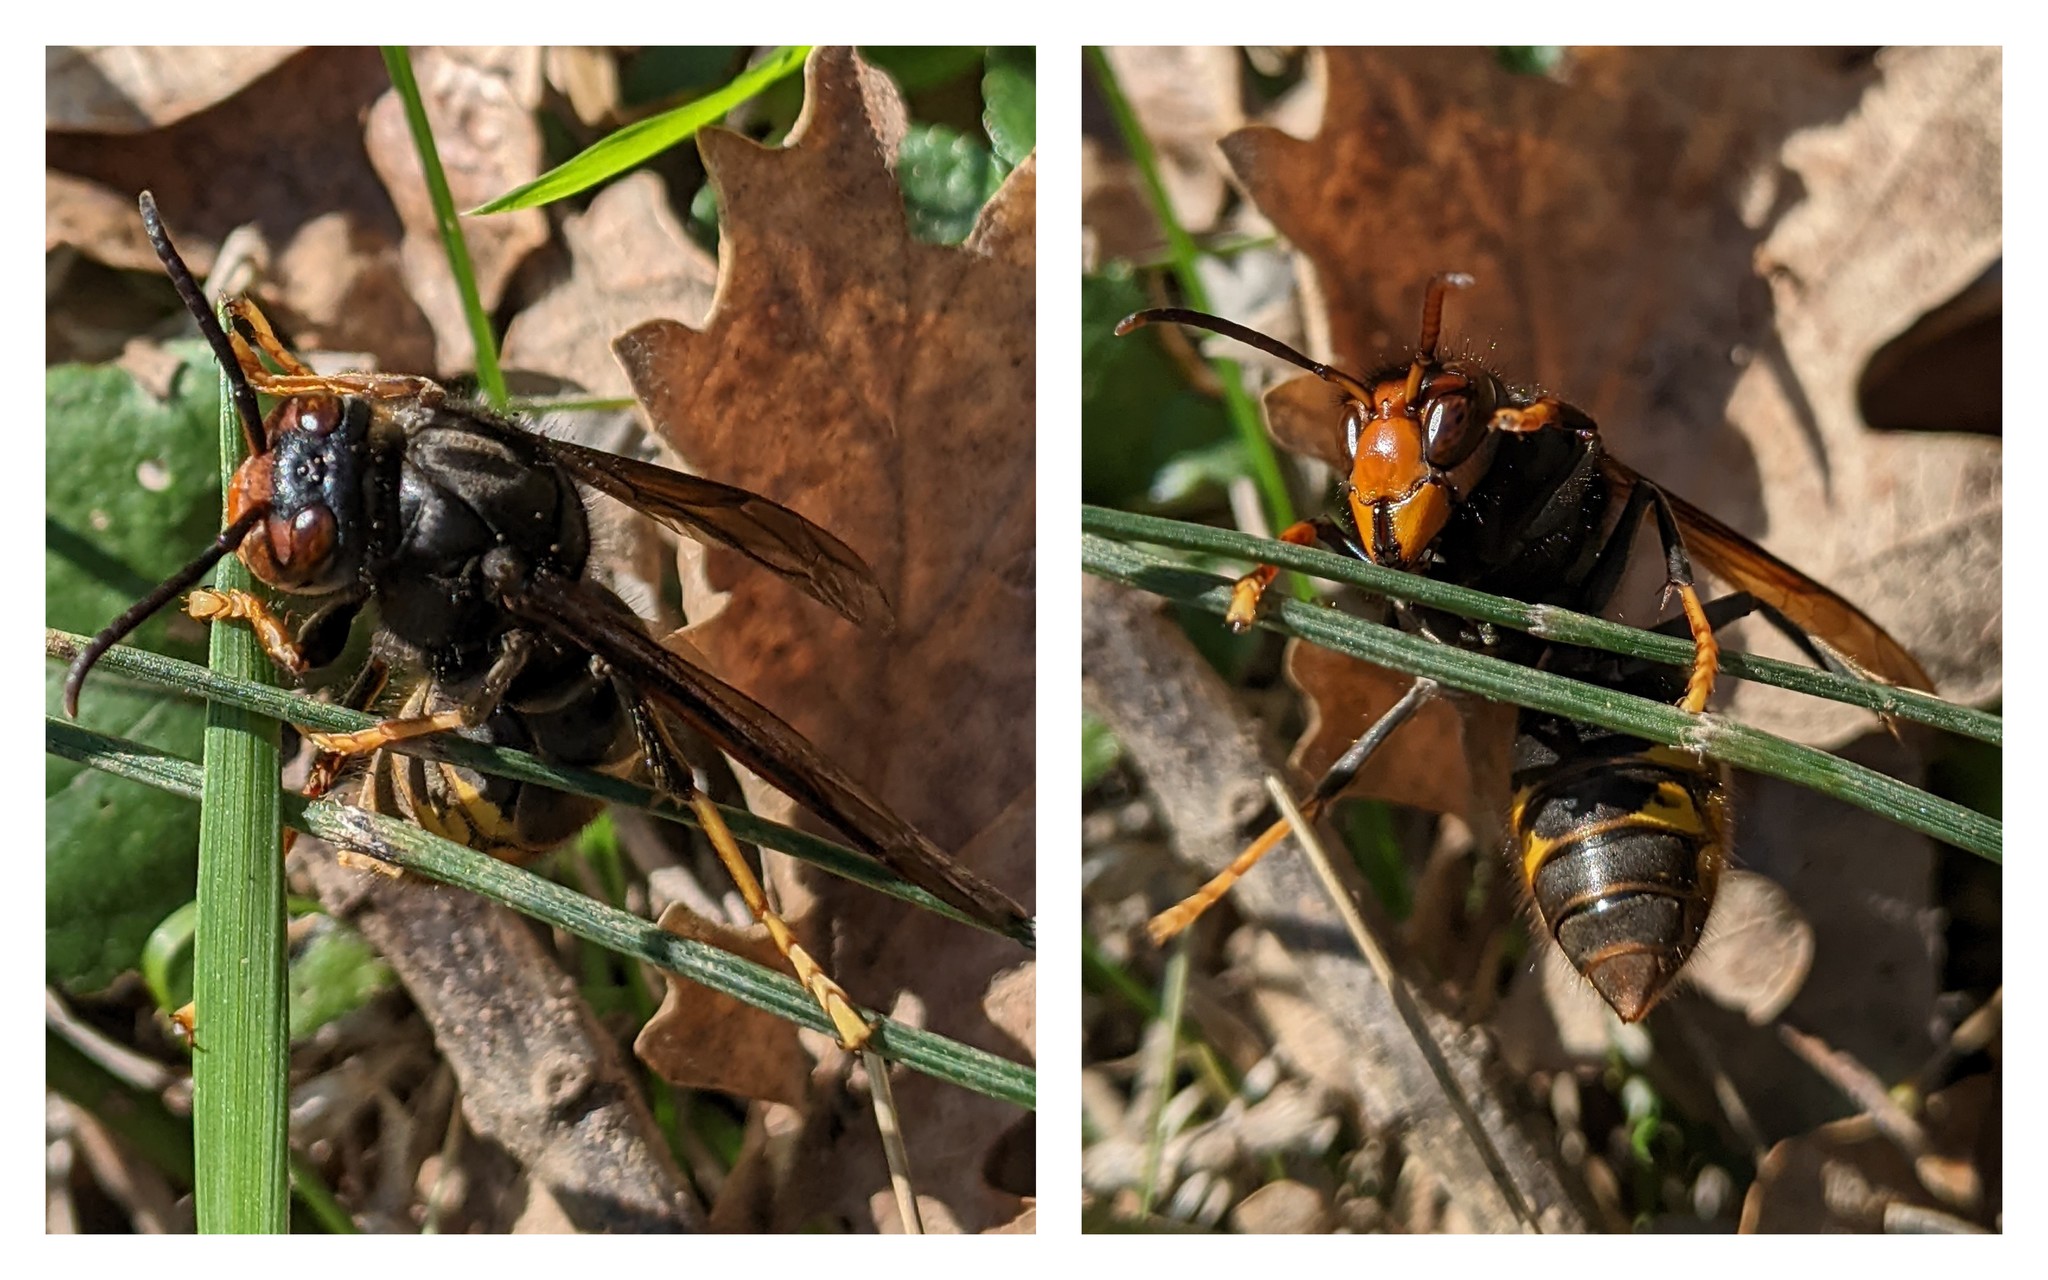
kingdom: Animalia
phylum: Arthropoda
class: Insecta
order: Hymenoptera
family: Vespidae
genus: Vespa
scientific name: Vespa velutina
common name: Asian hornet
